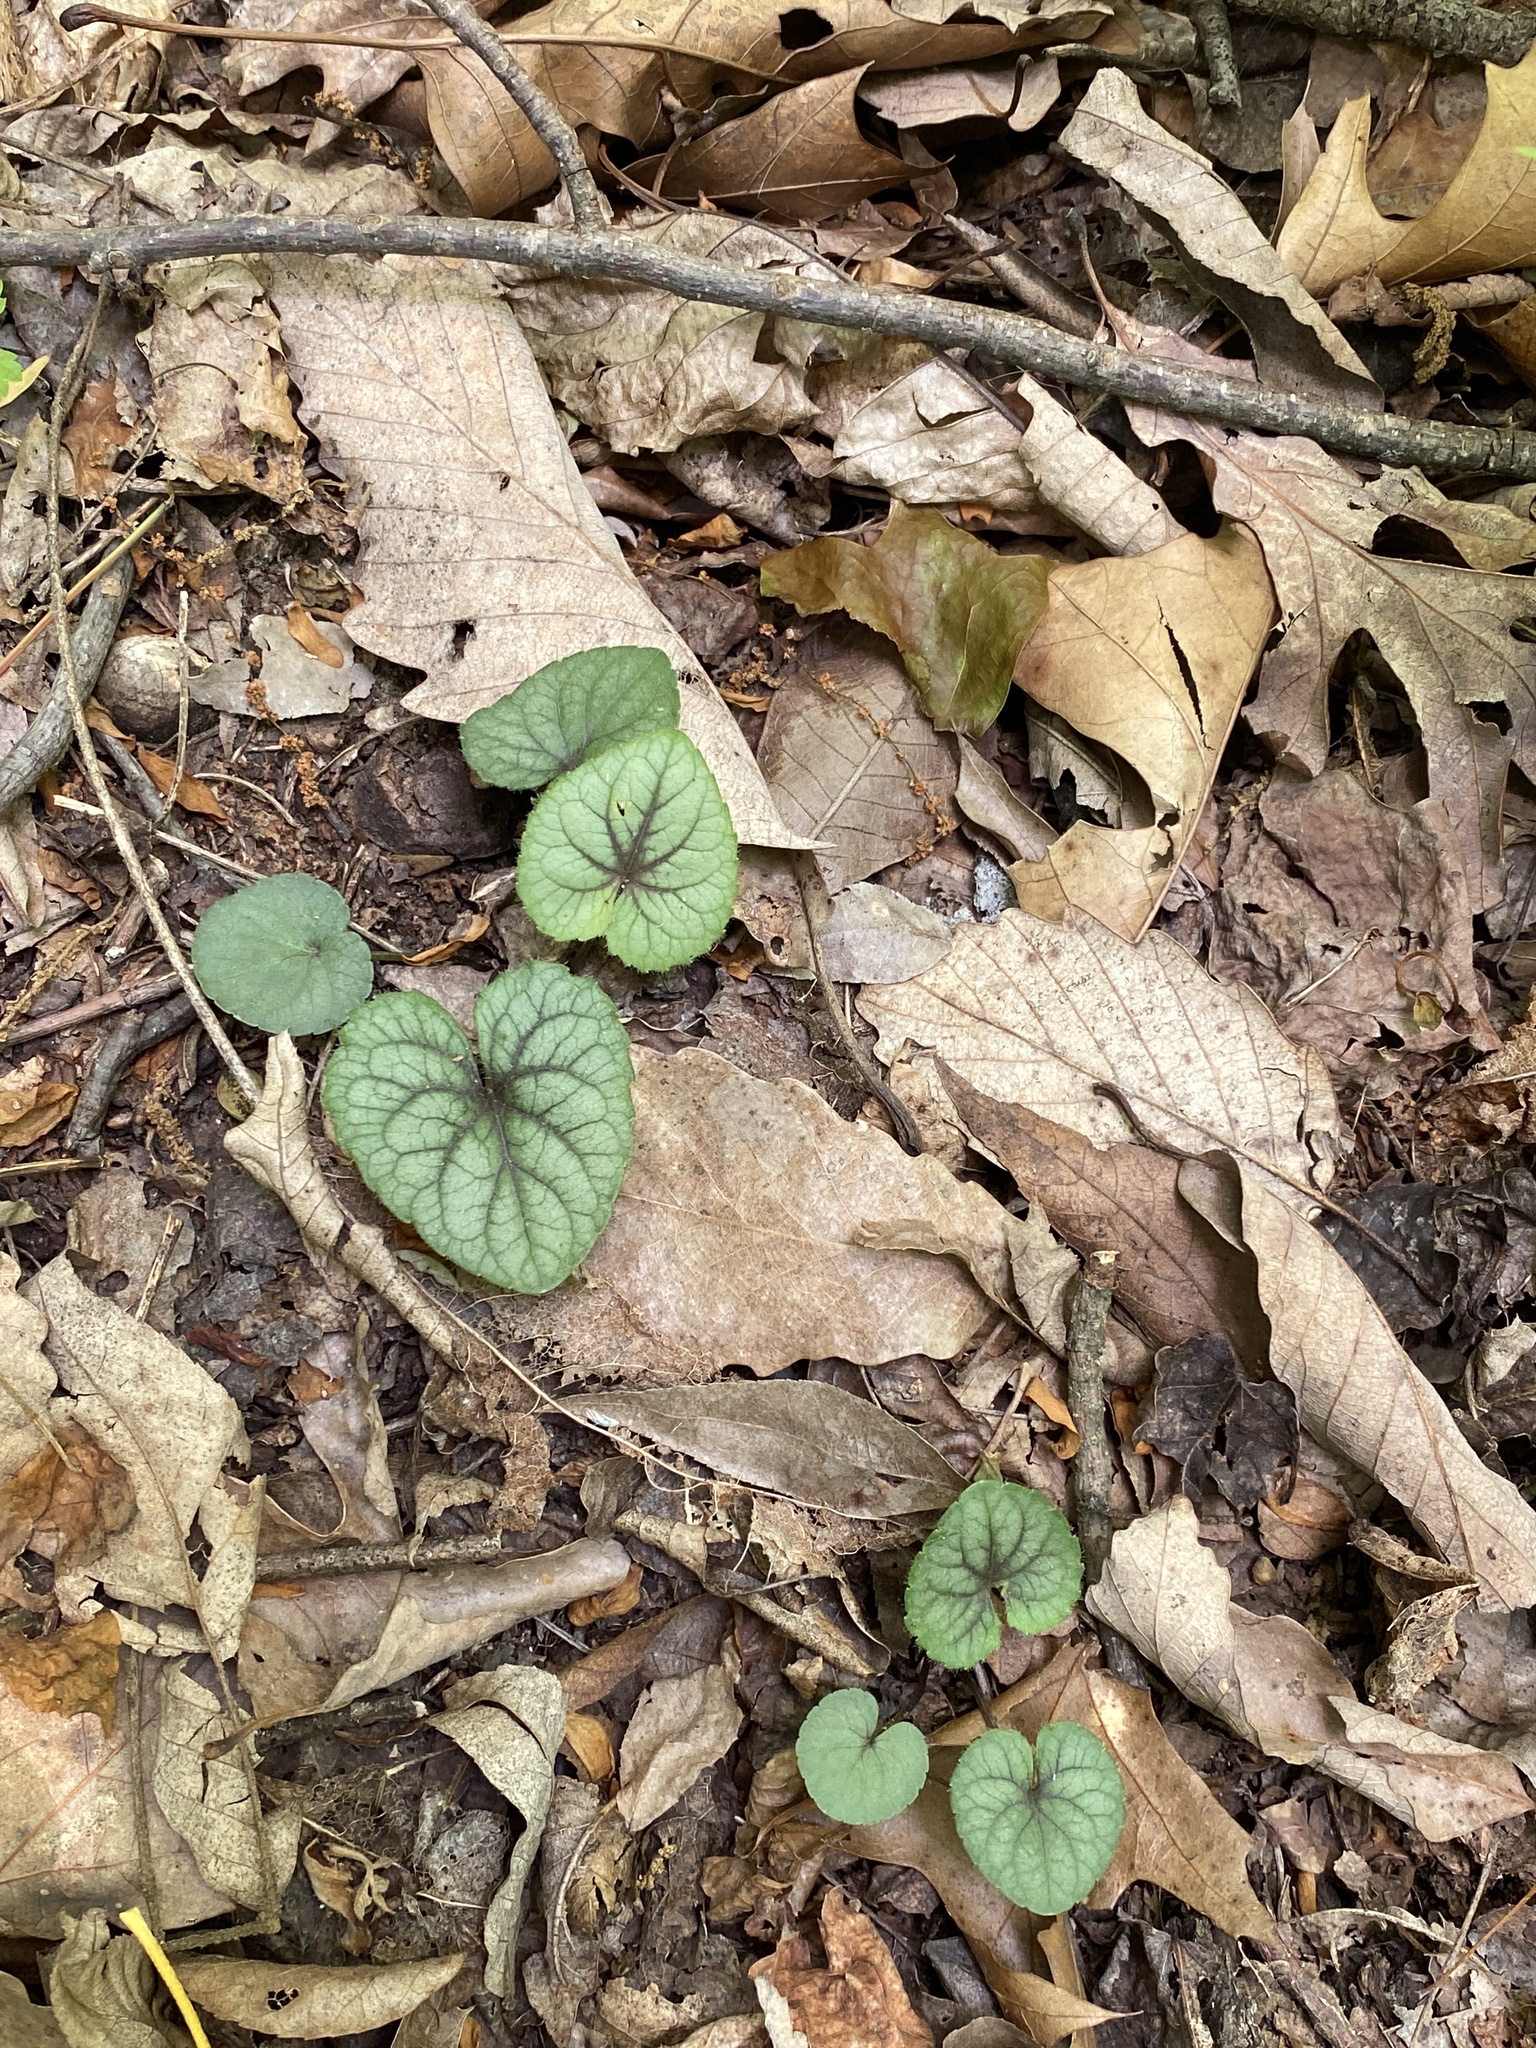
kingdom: Plantae
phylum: Tracheophyta
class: Magnoliopsida
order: Malpighiales
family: Violaceae
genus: Viola
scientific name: Viola hirsutula
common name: Southern wood violet
